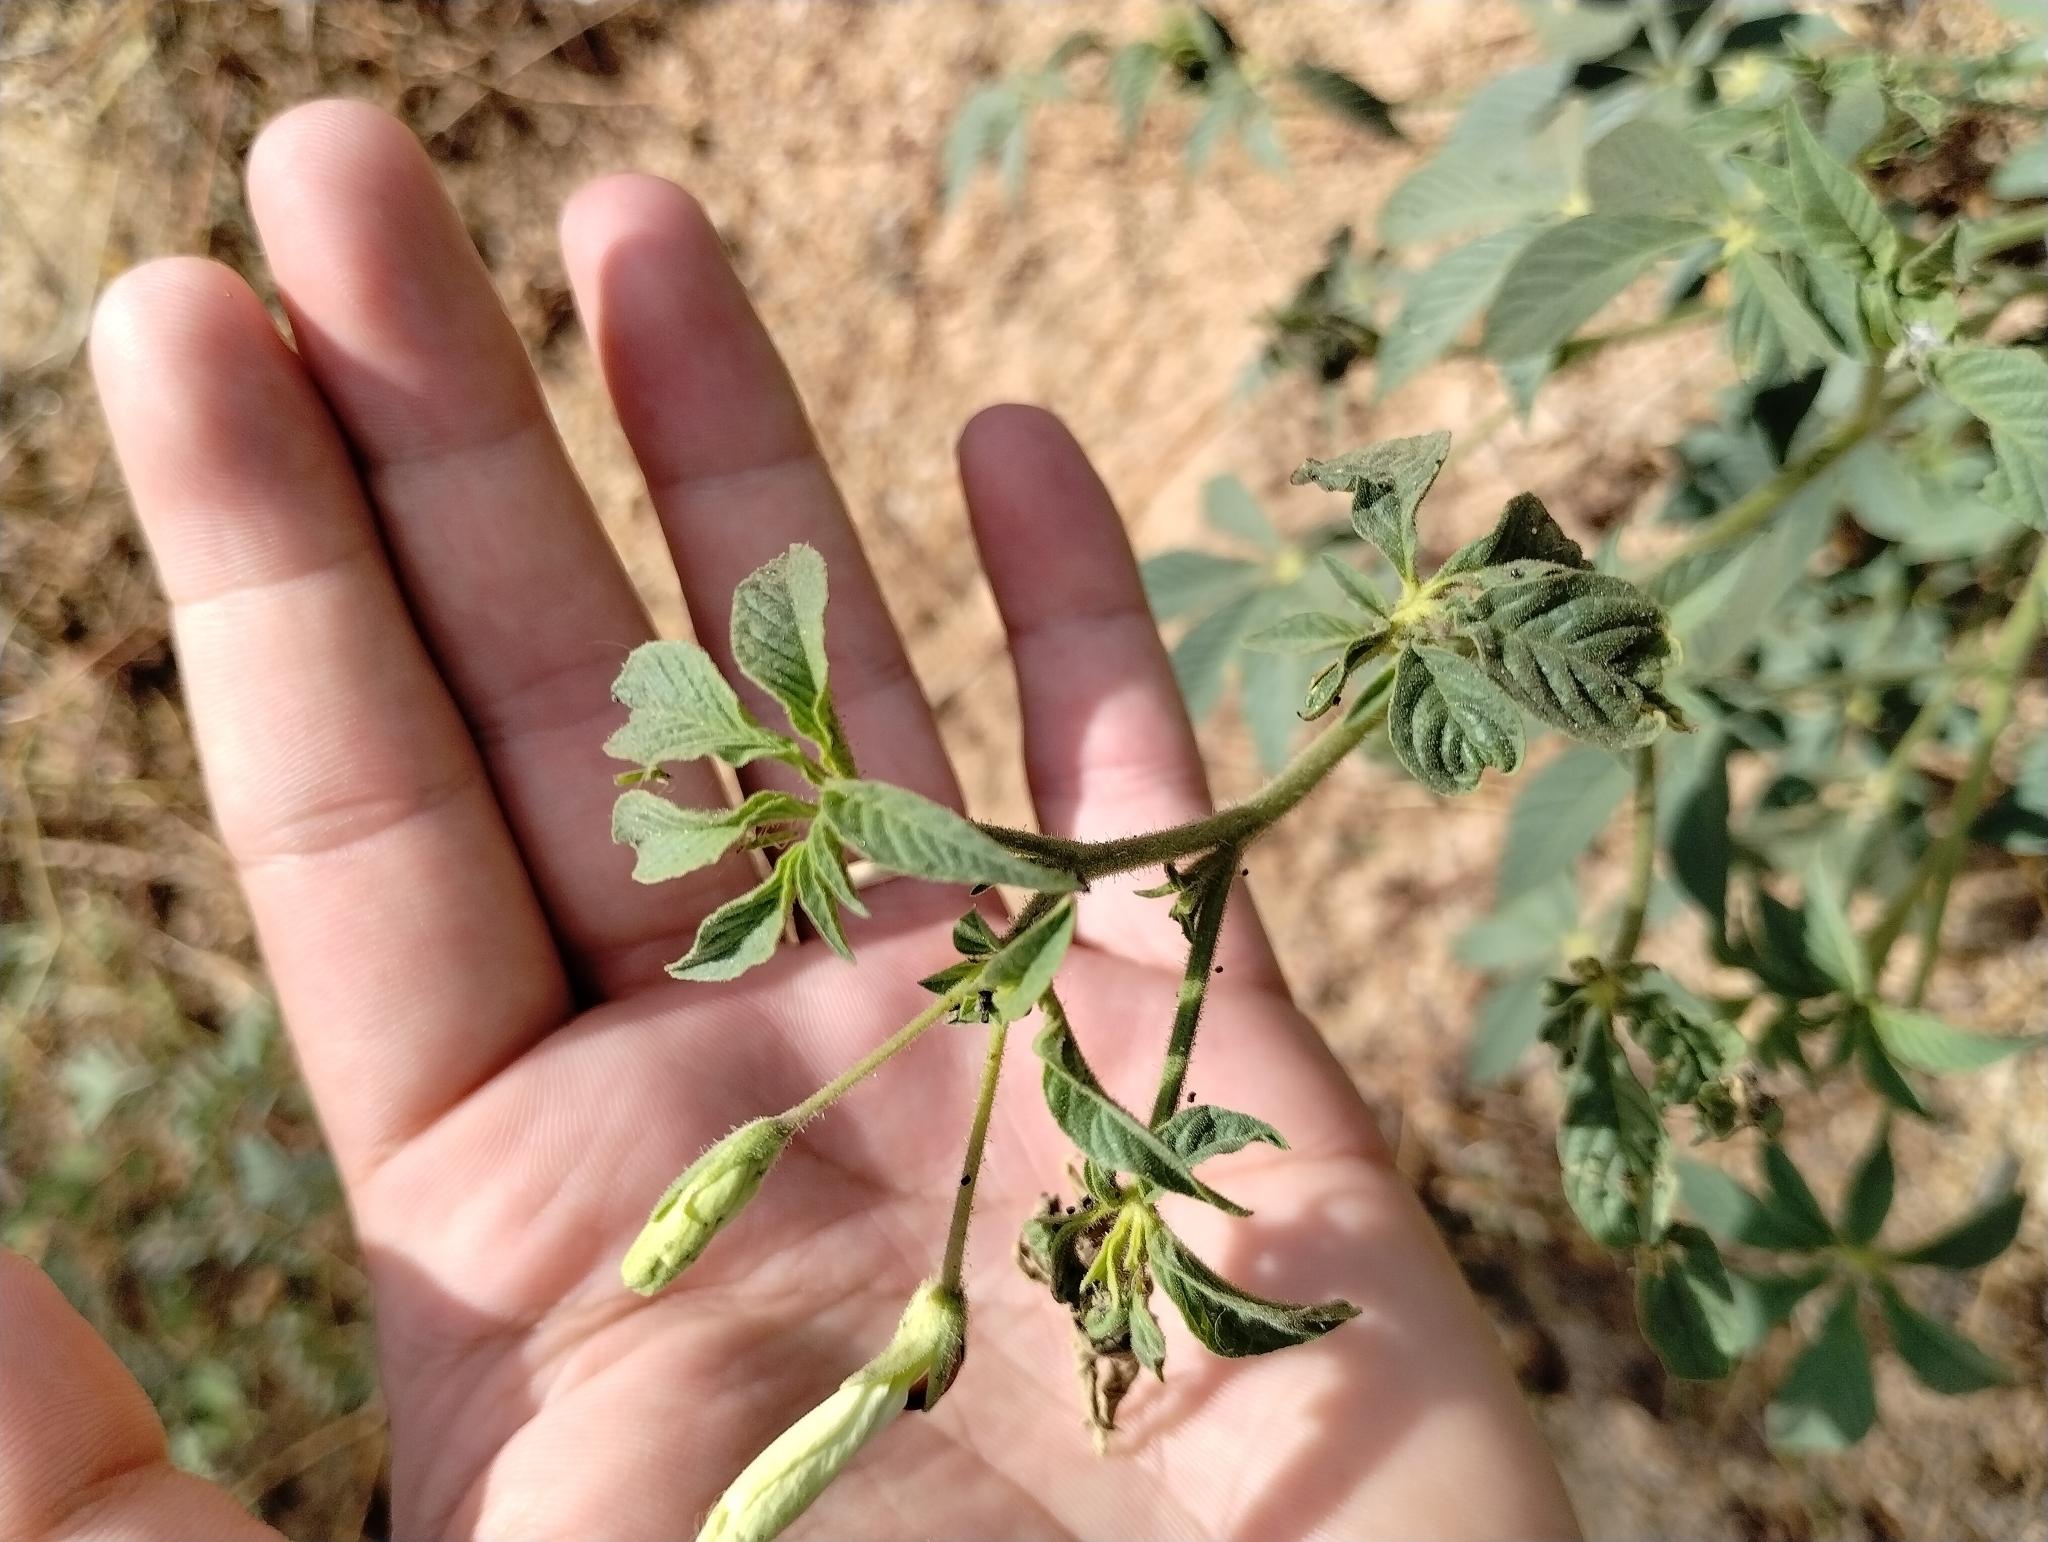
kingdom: Plantae
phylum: Tracheophyta
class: Magnoliopsida
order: Brassicales
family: Cleomaceae
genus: Tarenaya
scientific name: Tarenaya longicarpa
